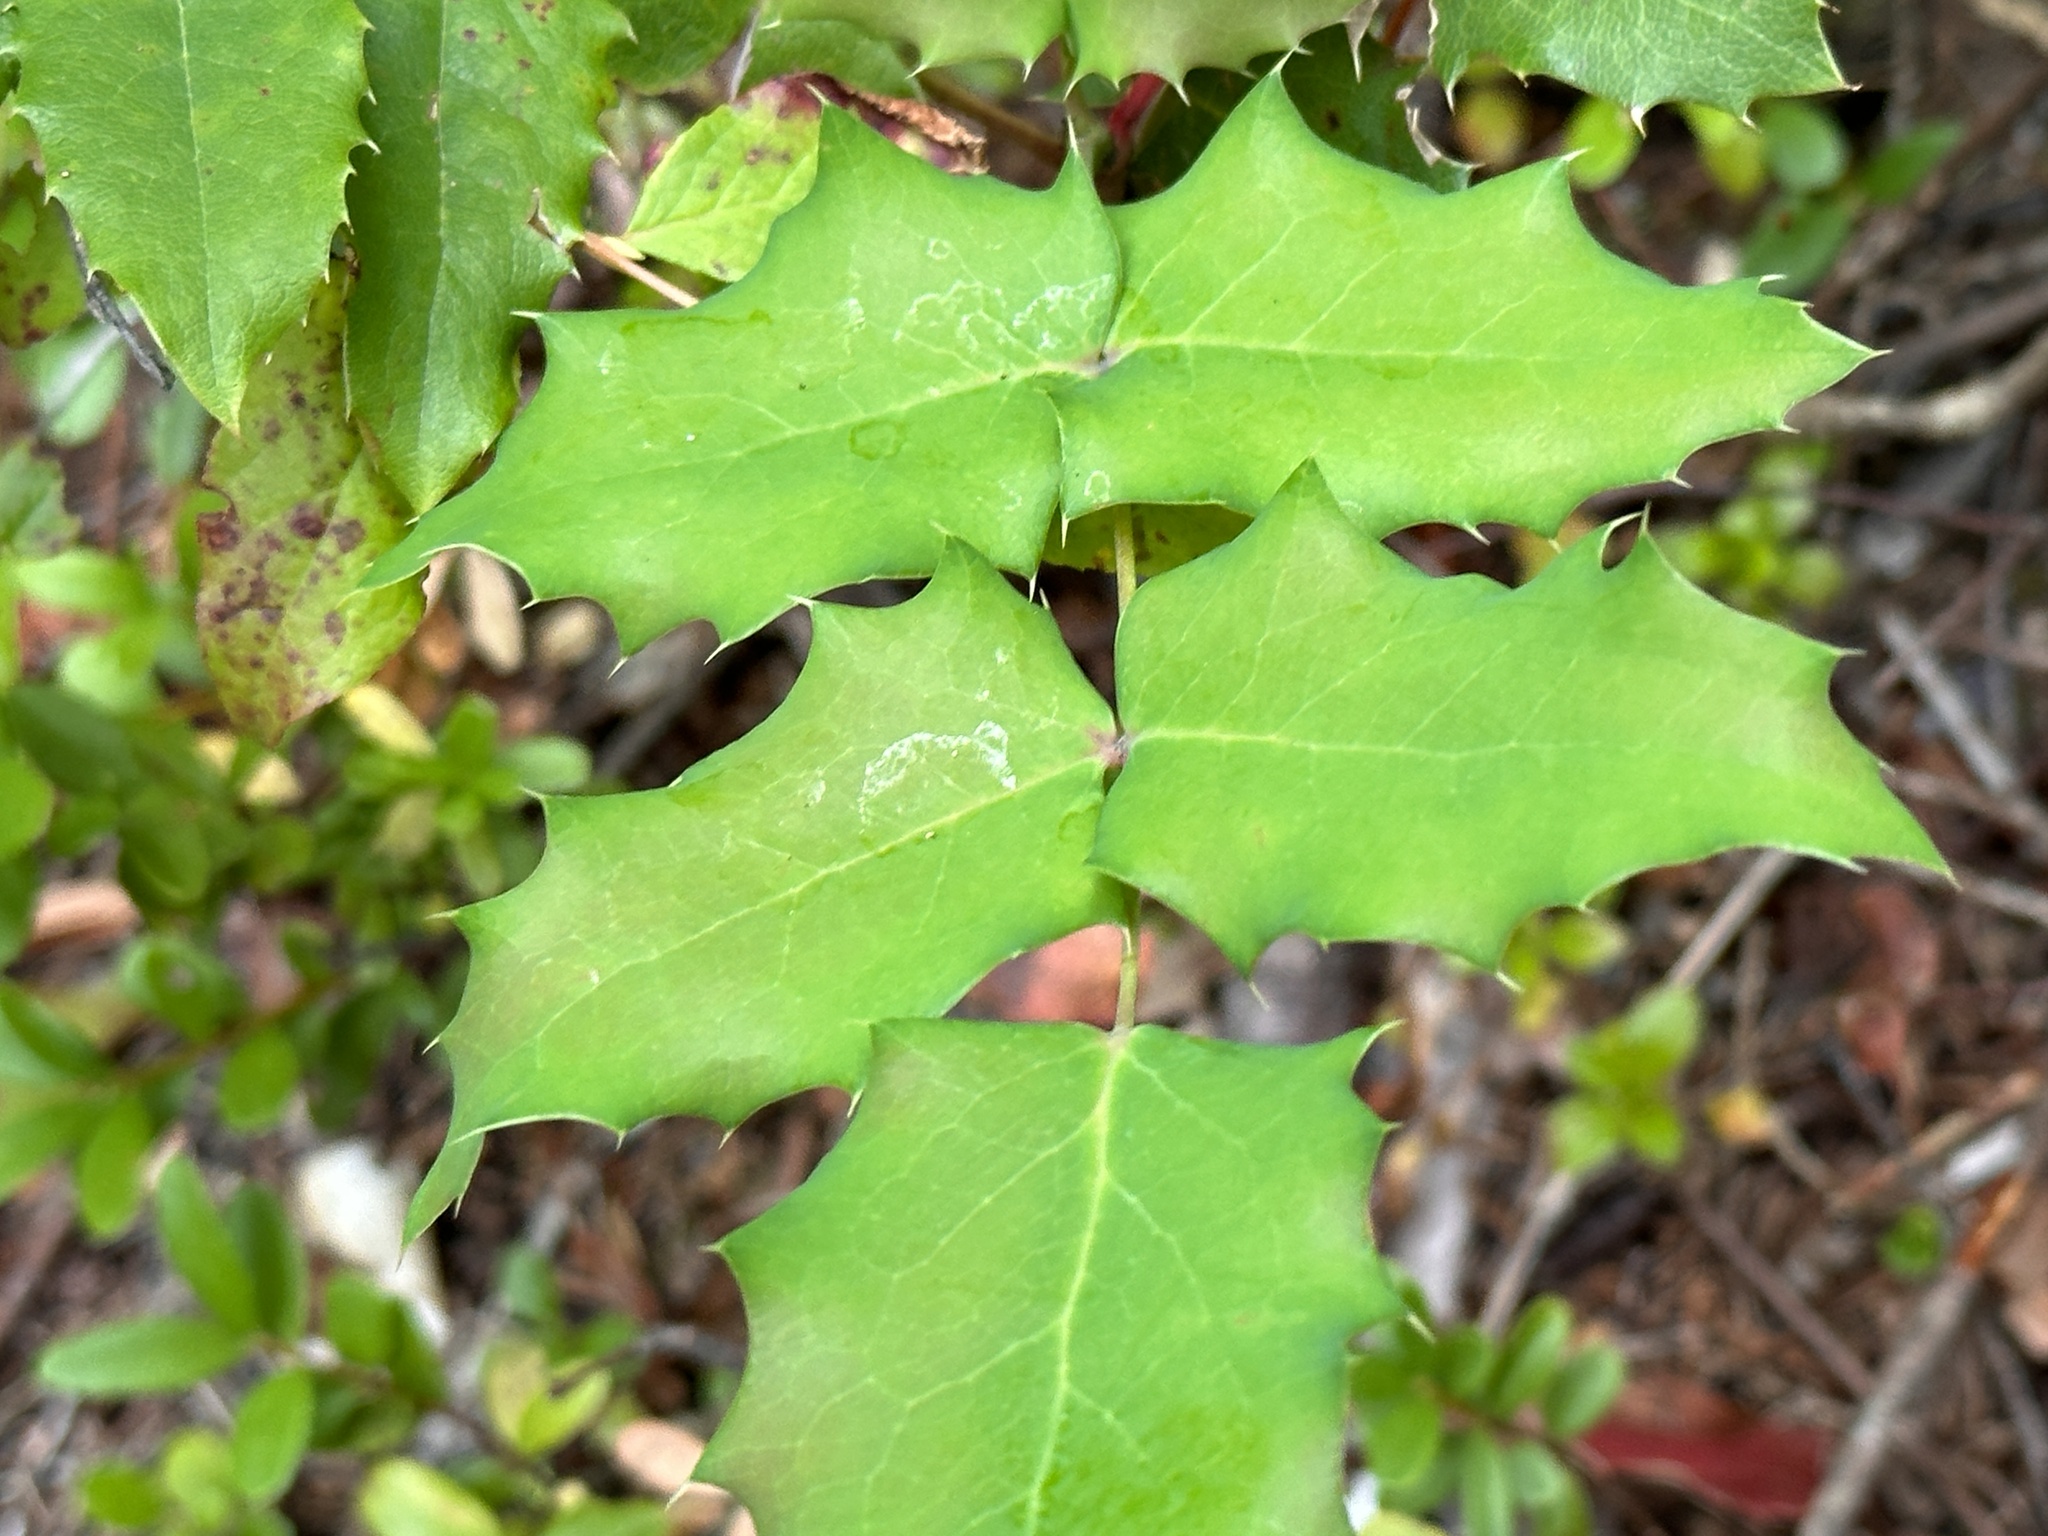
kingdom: Plantae
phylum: Tracheophyta
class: Magnoliopsida
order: Ranunculales
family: Berberidaceae
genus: Mahonia
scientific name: Mahonia repens
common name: Creeping oregon-grape
